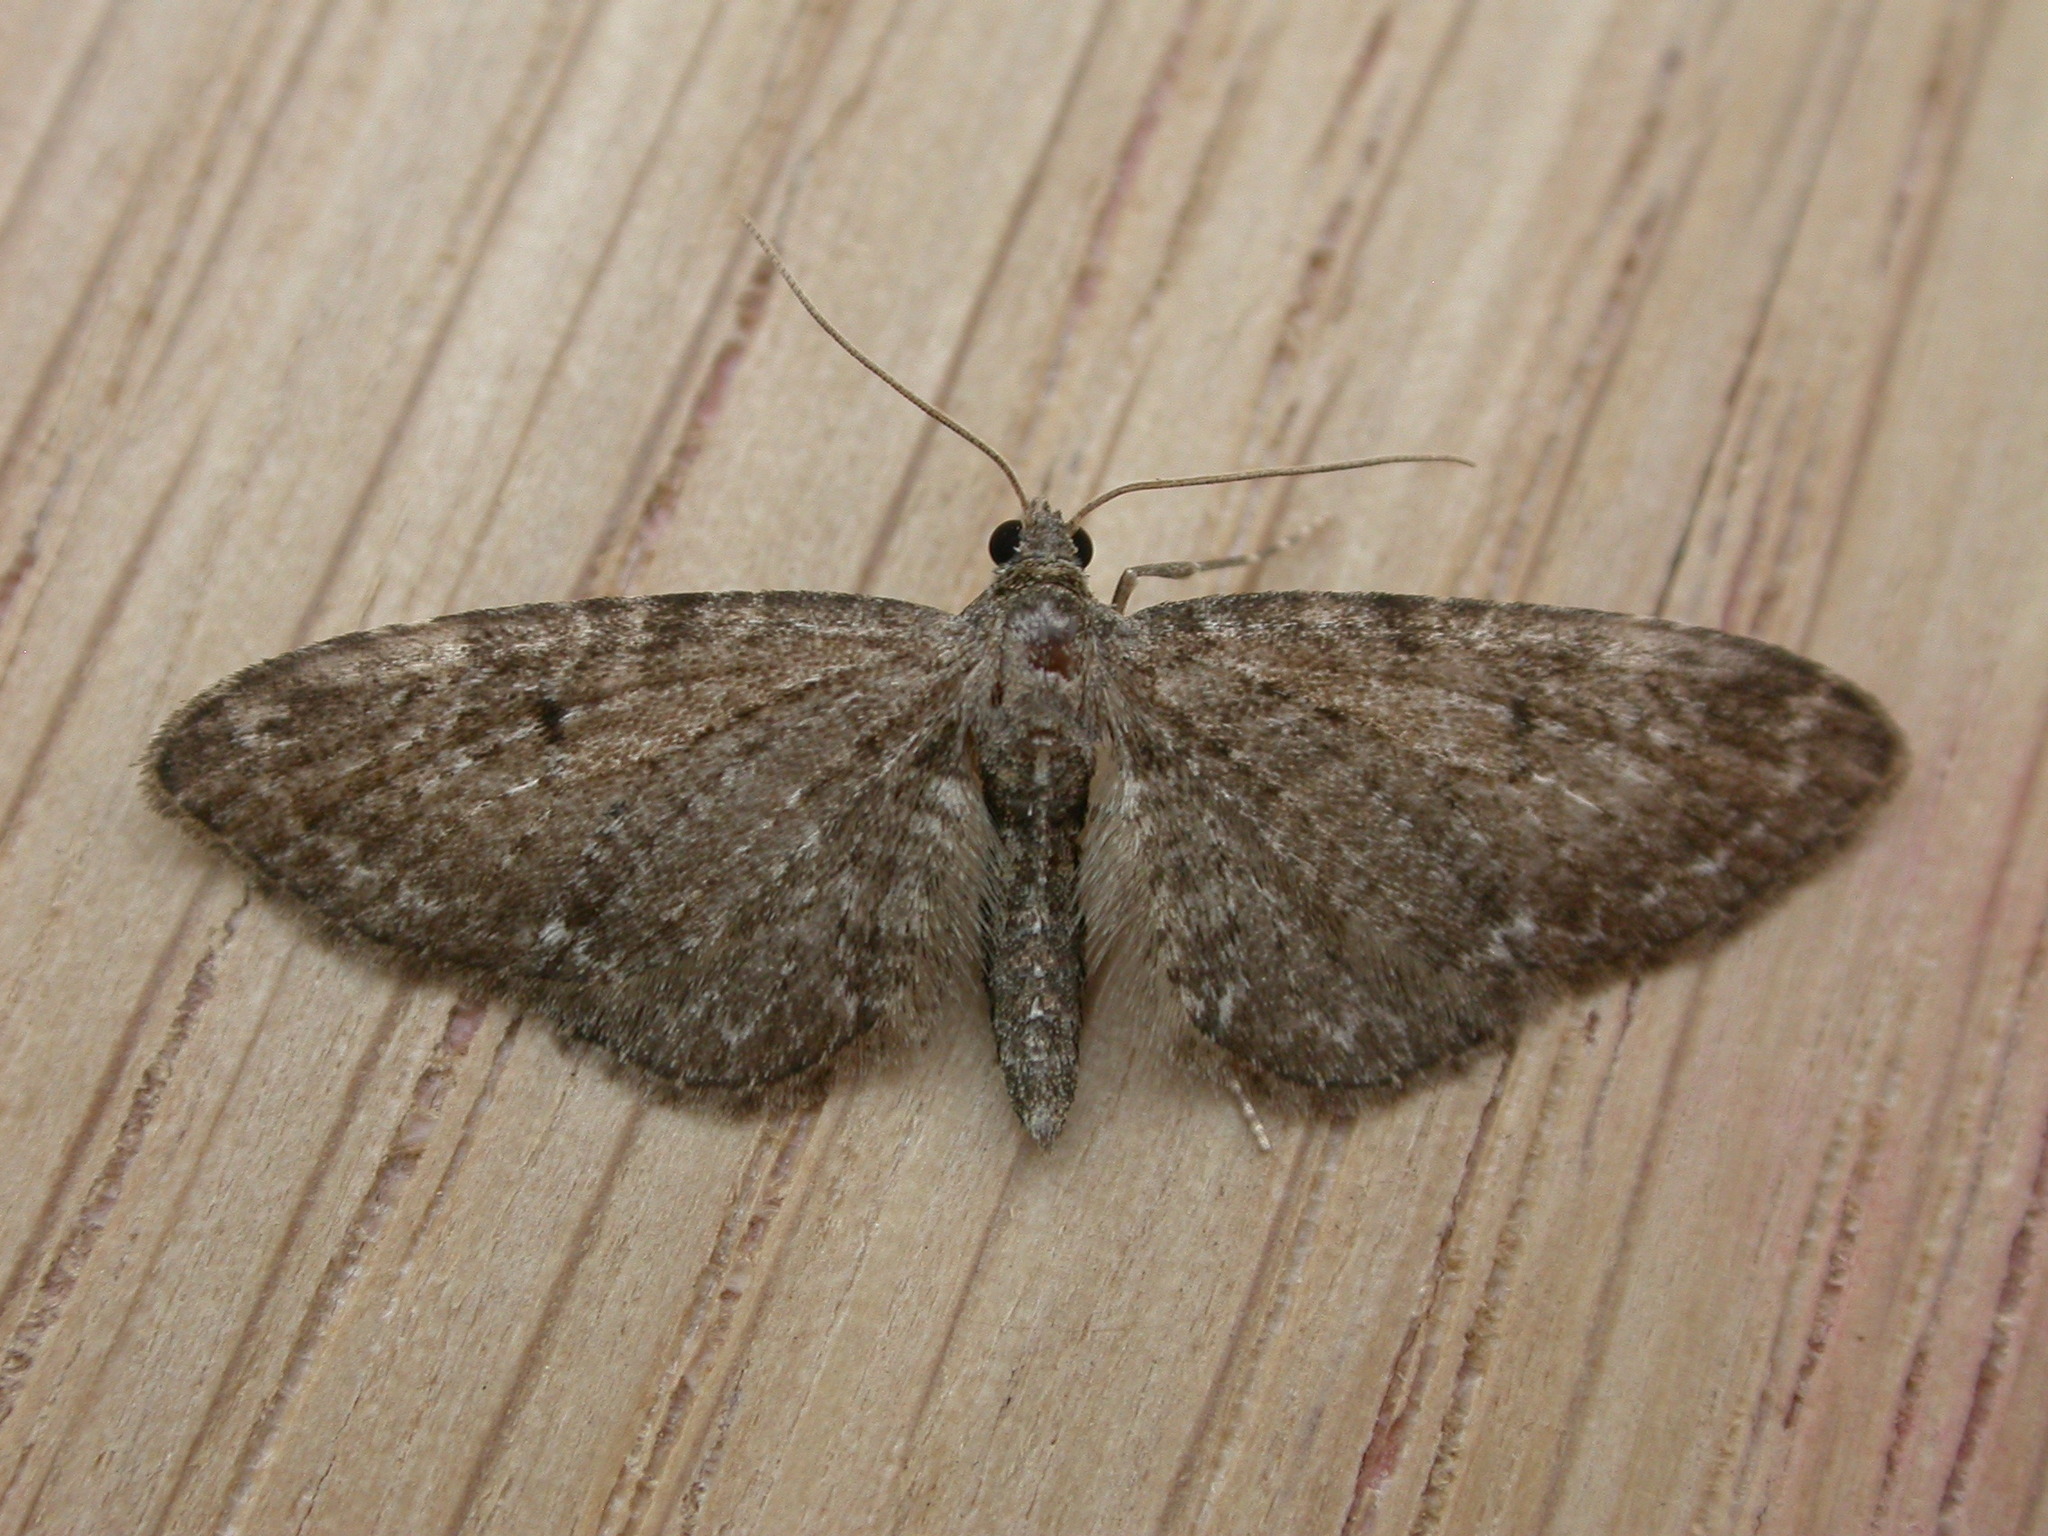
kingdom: Animalia
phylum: Arthropoda
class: Insecta
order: Lepidoptera
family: Geometridae
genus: Eupithecia
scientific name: Eupithecia vulgata
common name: Common pug
